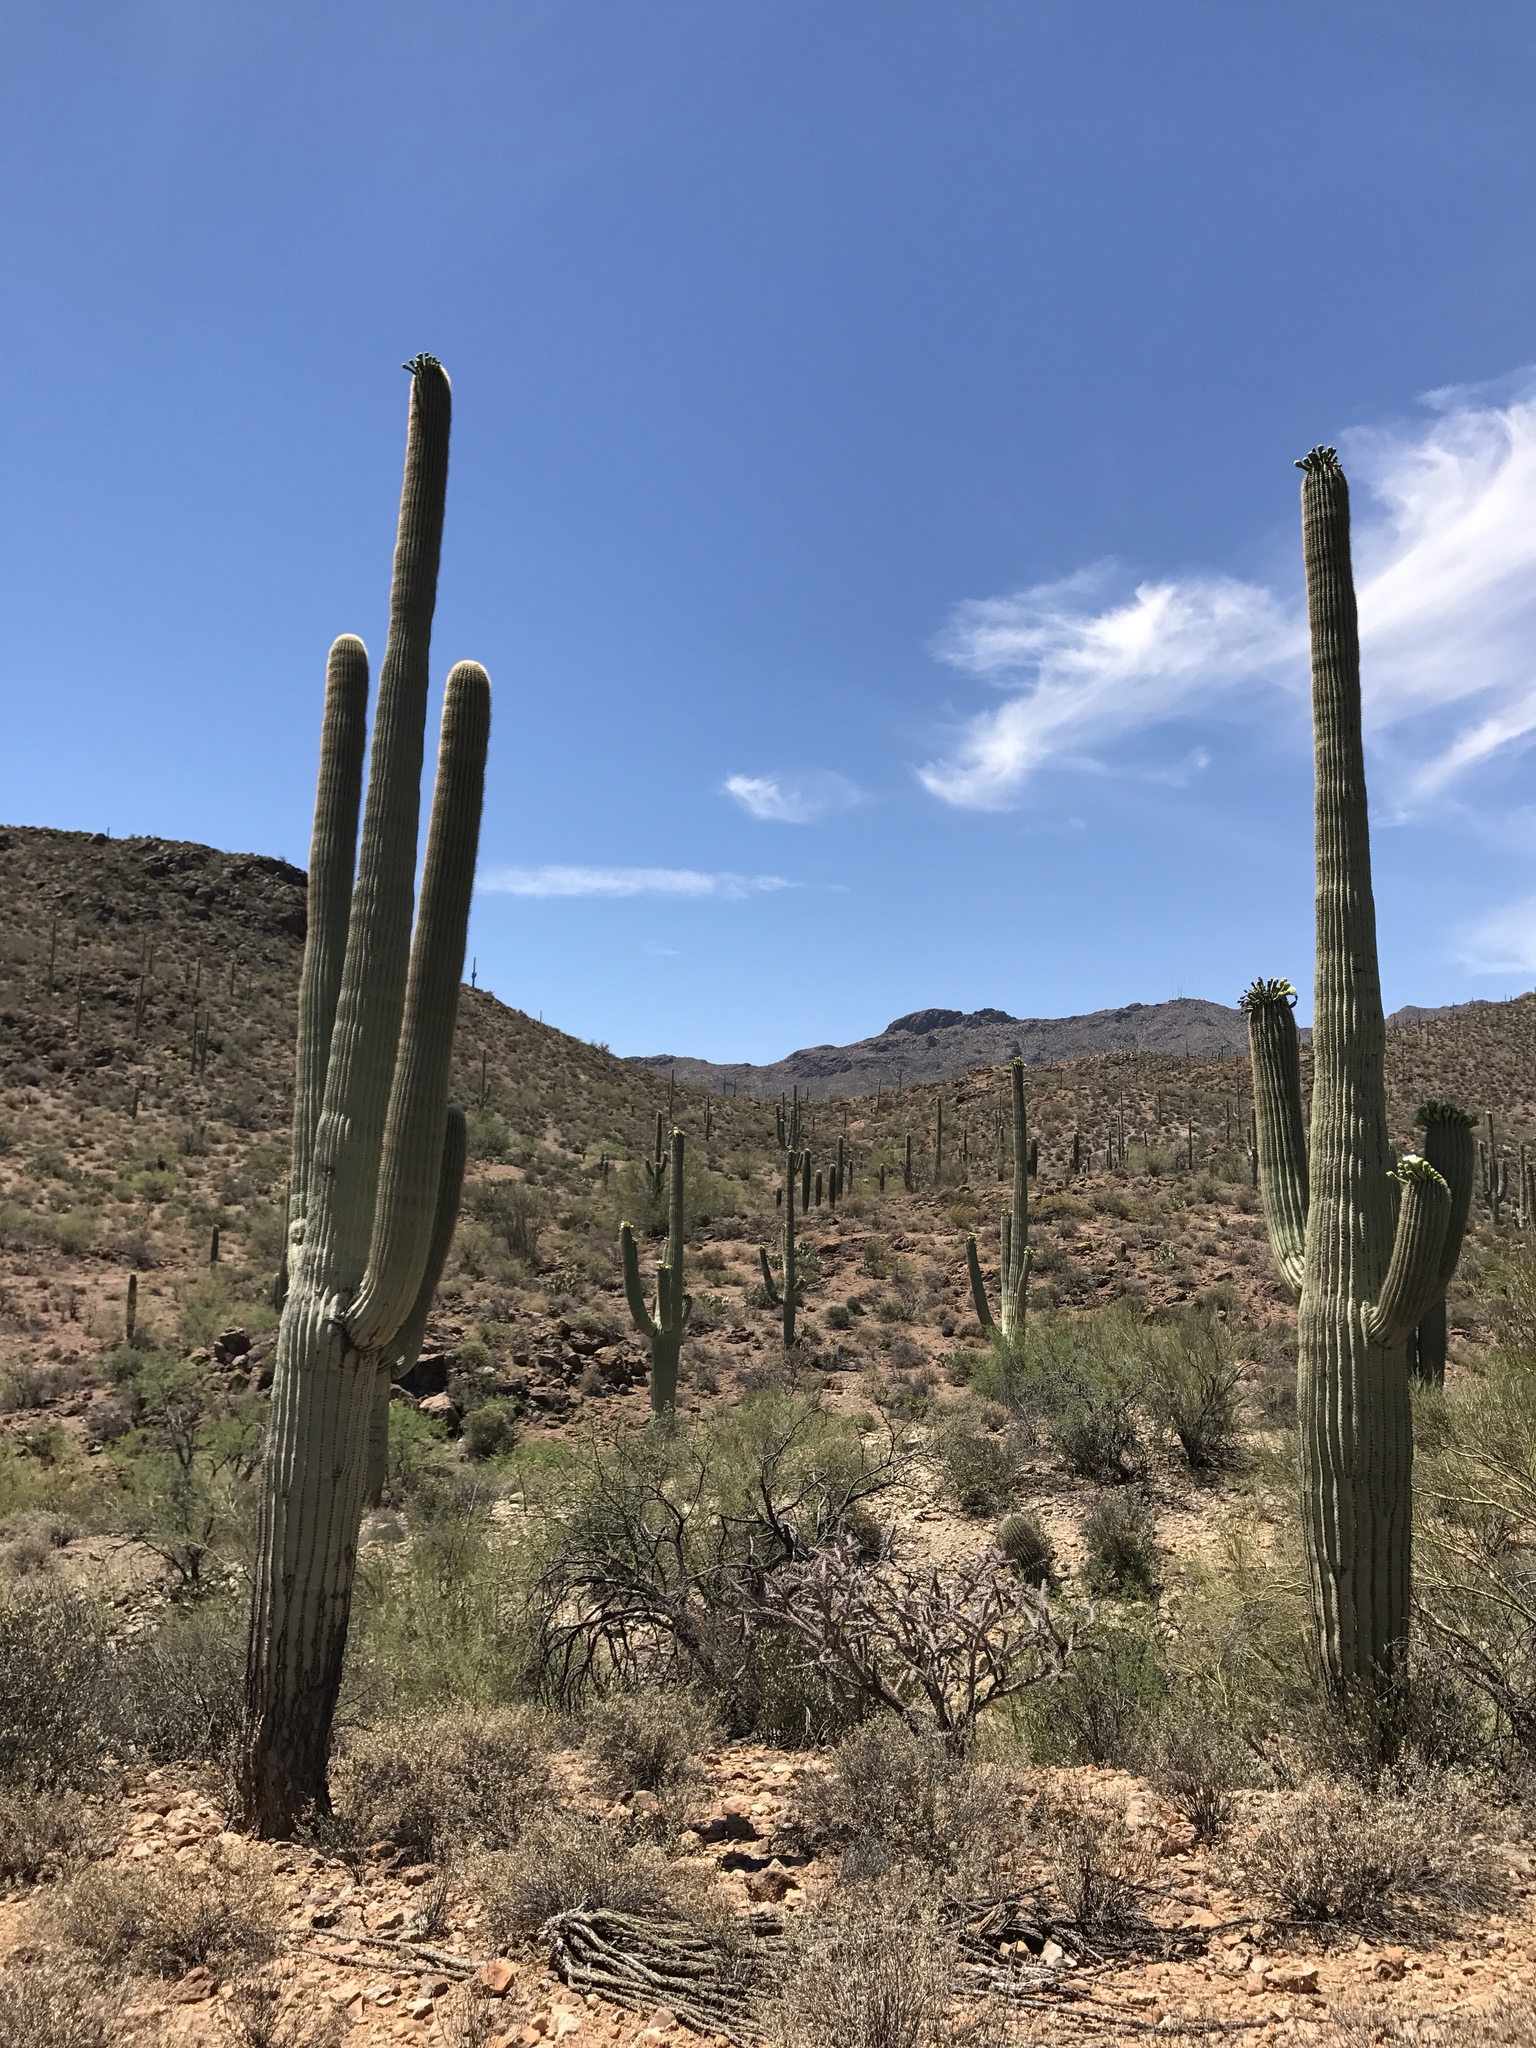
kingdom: Plantae
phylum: Tracheophyta
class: Magnoliopsida
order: Caryophyllales
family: Cactaceae
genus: Carnegiea
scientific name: Carnegiea gigantea
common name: Saguaro
